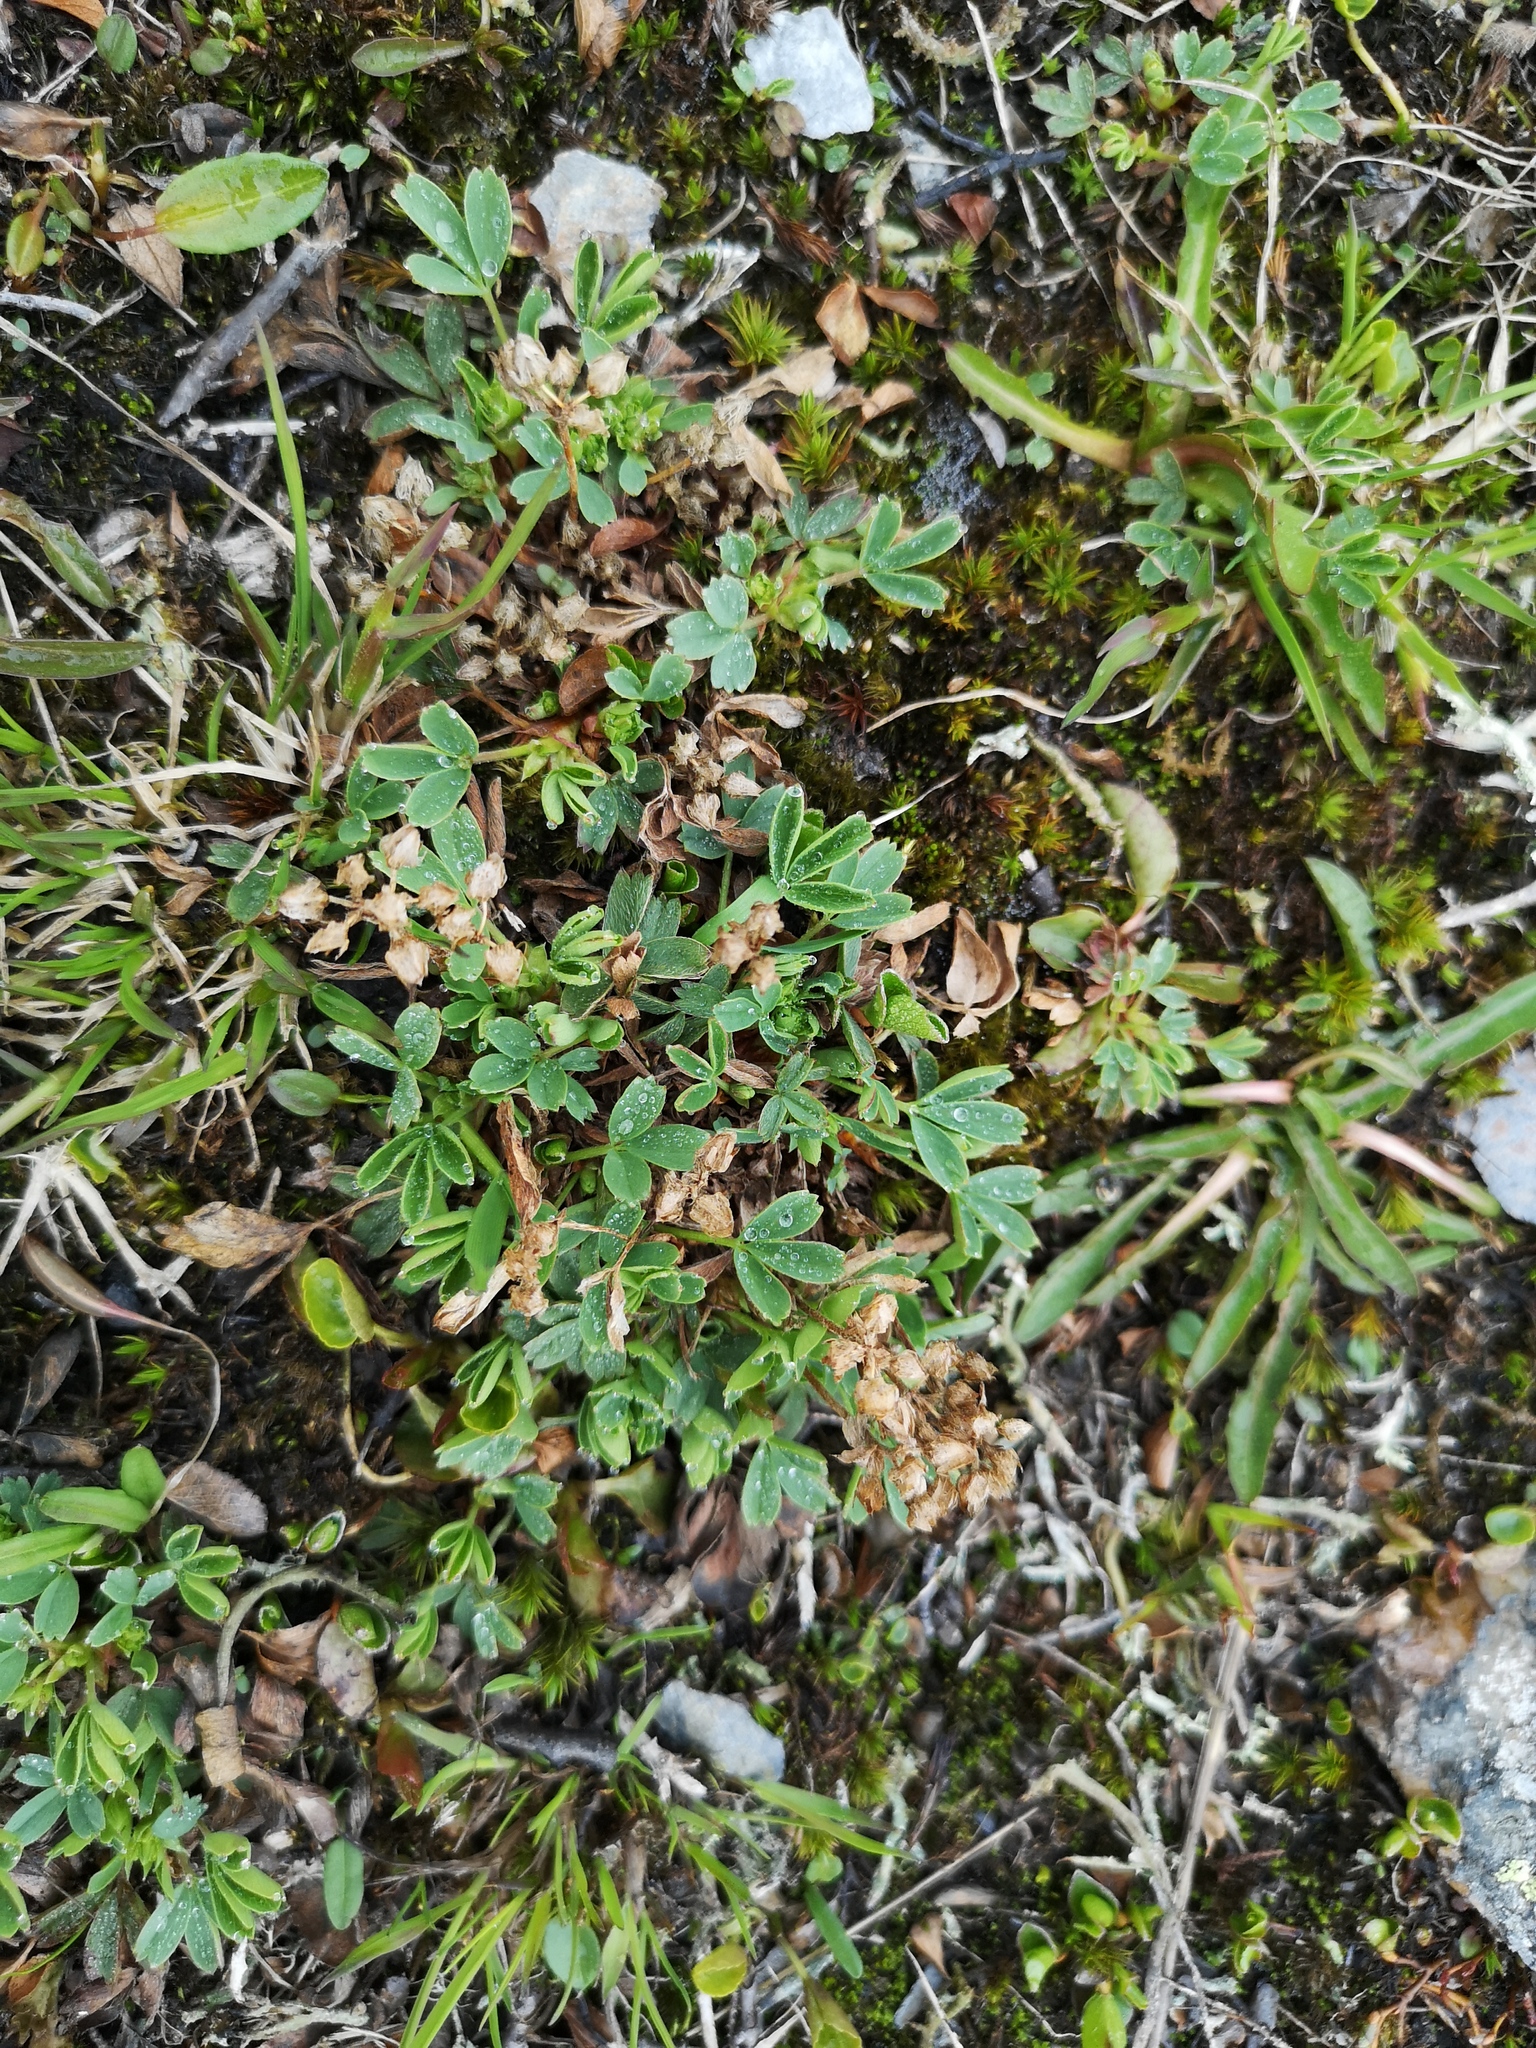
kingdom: Plantae
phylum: Tracheophyta
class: Magnoliopsida
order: Rosales
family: Rosaceae
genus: Sibbaldia
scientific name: Sibbaldia procumbens
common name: Creeping sibbaldia
